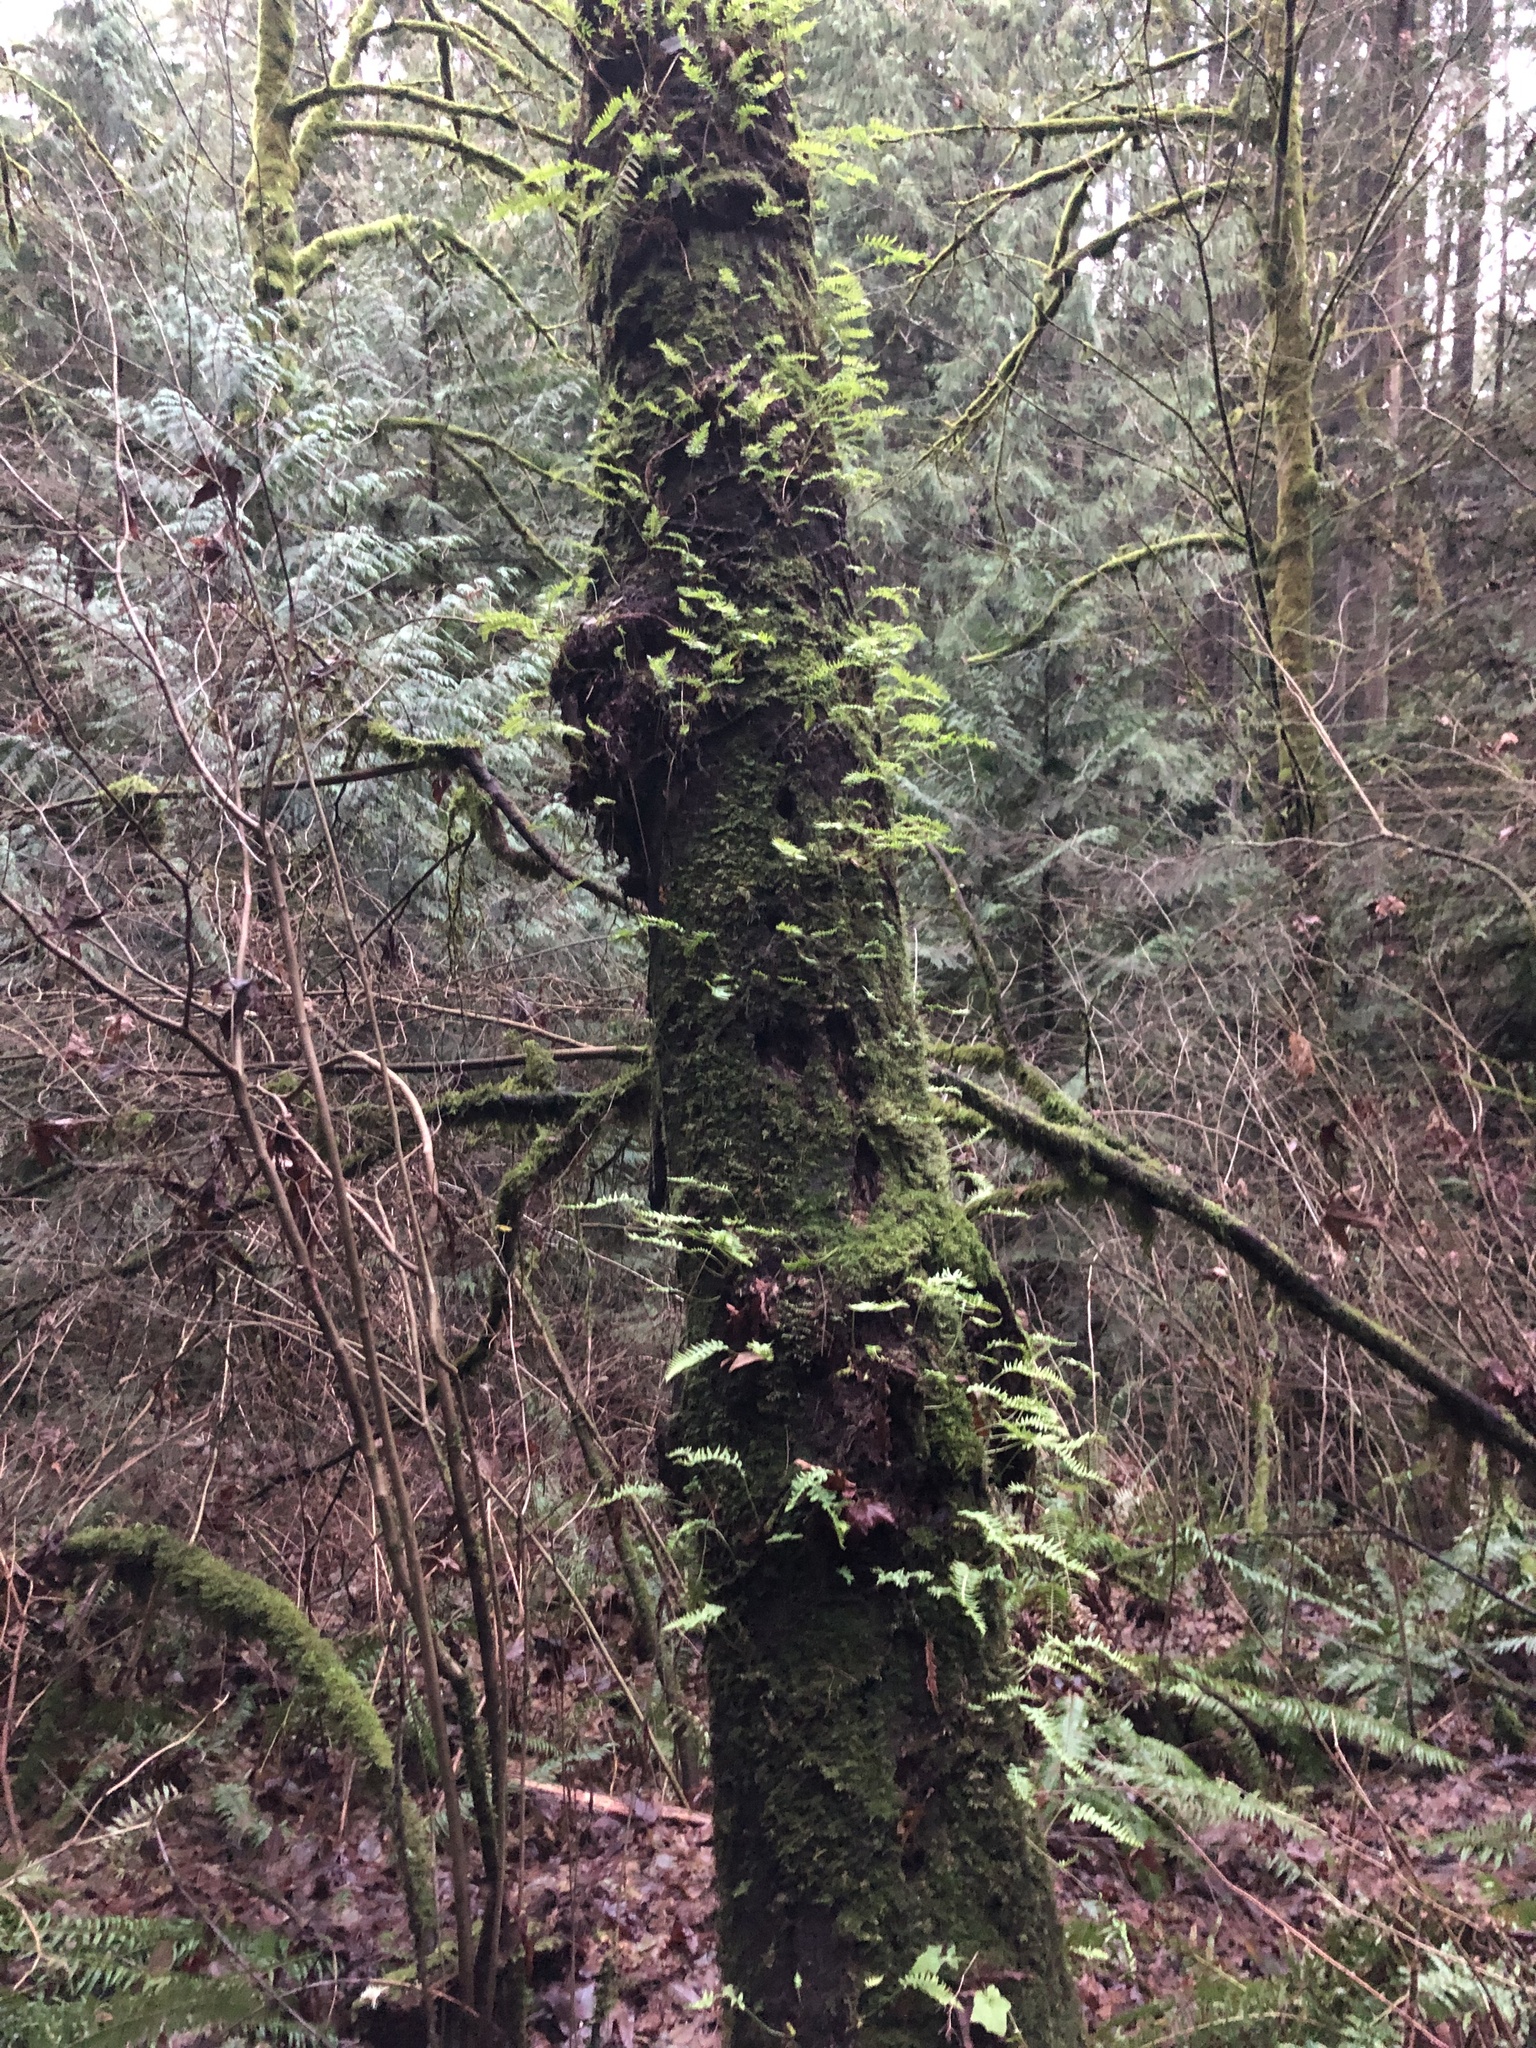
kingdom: Plantae
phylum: Tracheophyta
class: Polypodiopsida
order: Polypodiales
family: Polypodiaceae
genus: Polypodium
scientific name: Polypodium glycyrrhiza
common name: Licorice fern
